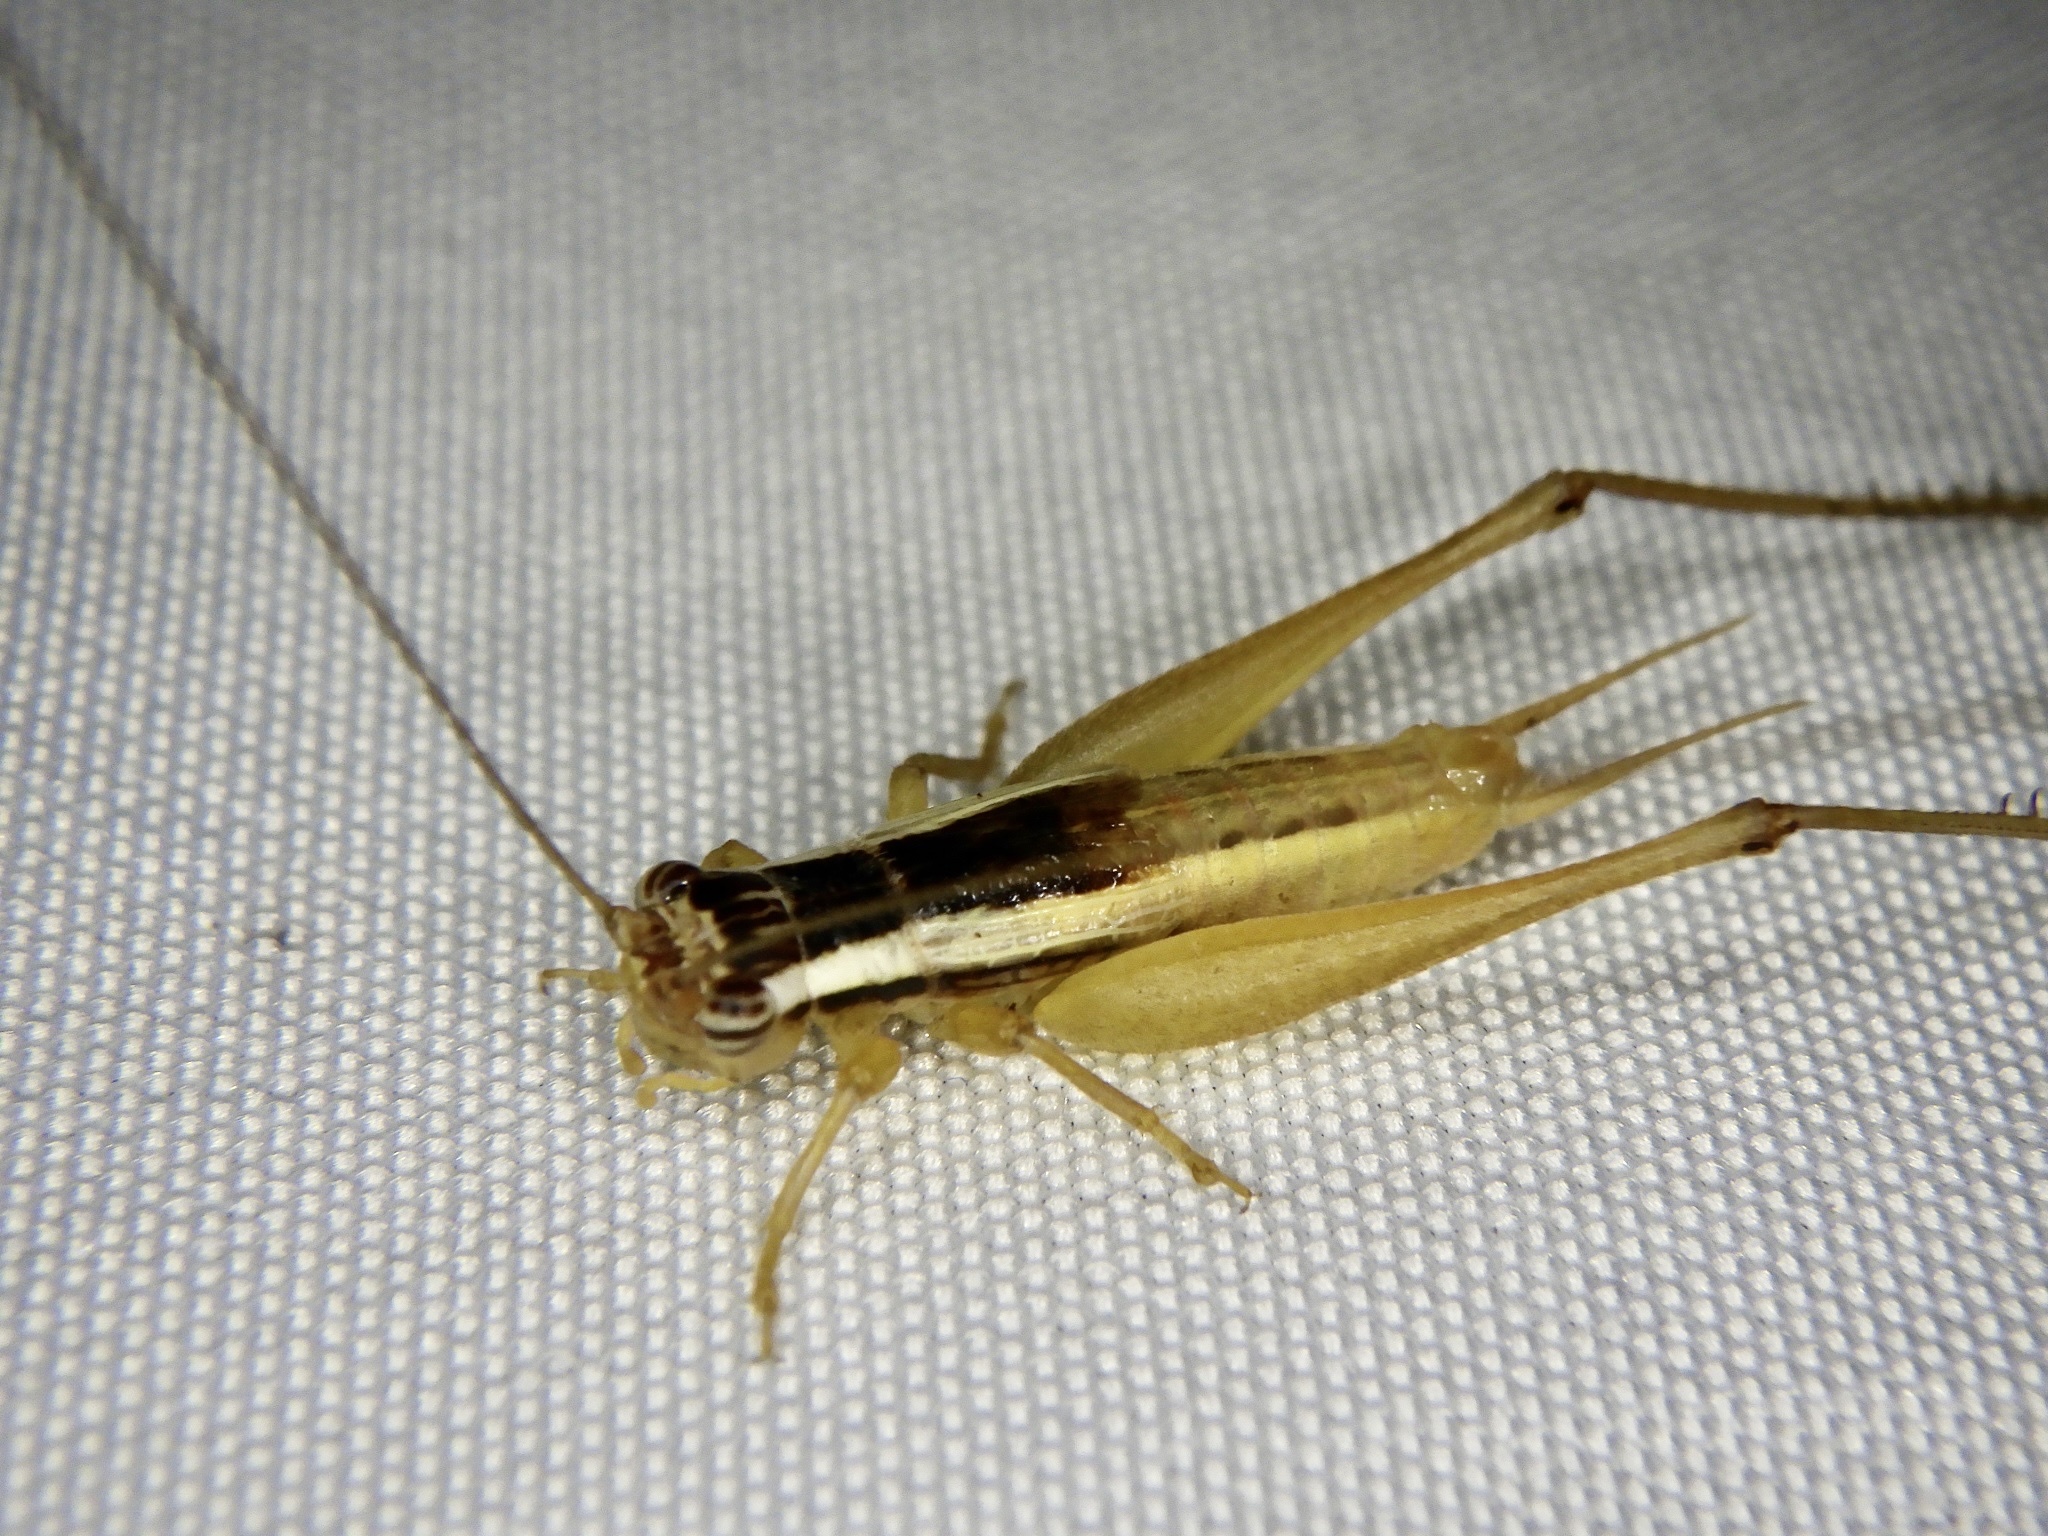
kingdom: Animalia
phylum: Arthropoda
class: Insecta
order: Orthoptera
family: Gryllidae
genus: Euscyrtus
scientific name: Euscyrtus japonicus
